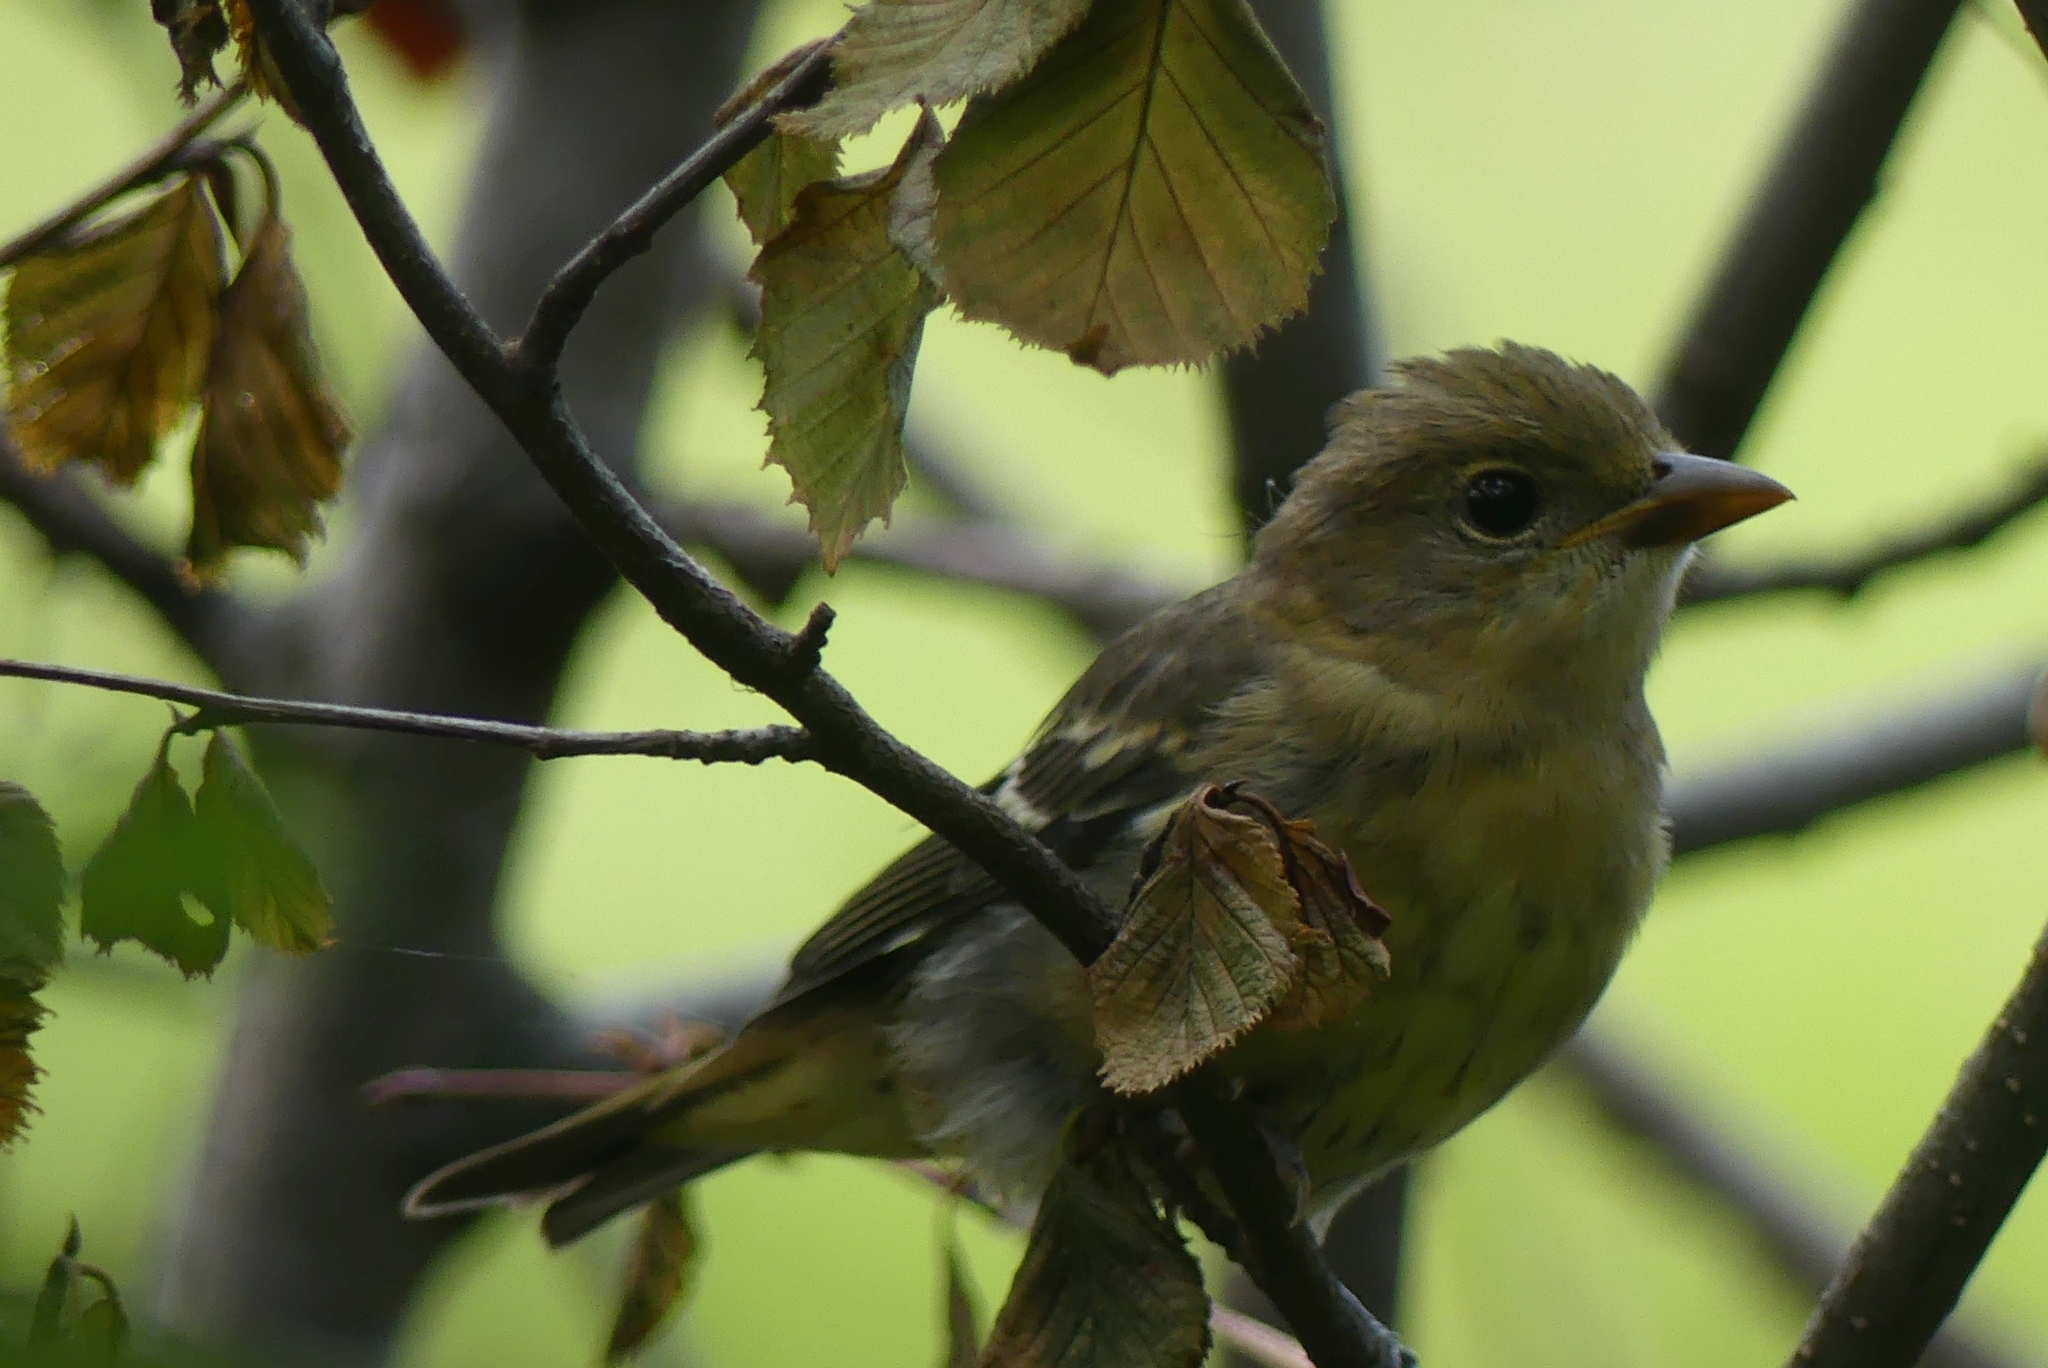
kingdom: Animalia
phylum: Chordata
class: Aves
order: Passeriformes
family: Cardinalidae
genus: Piranga
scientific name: Piranga ludoviciana
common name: Western tanager
